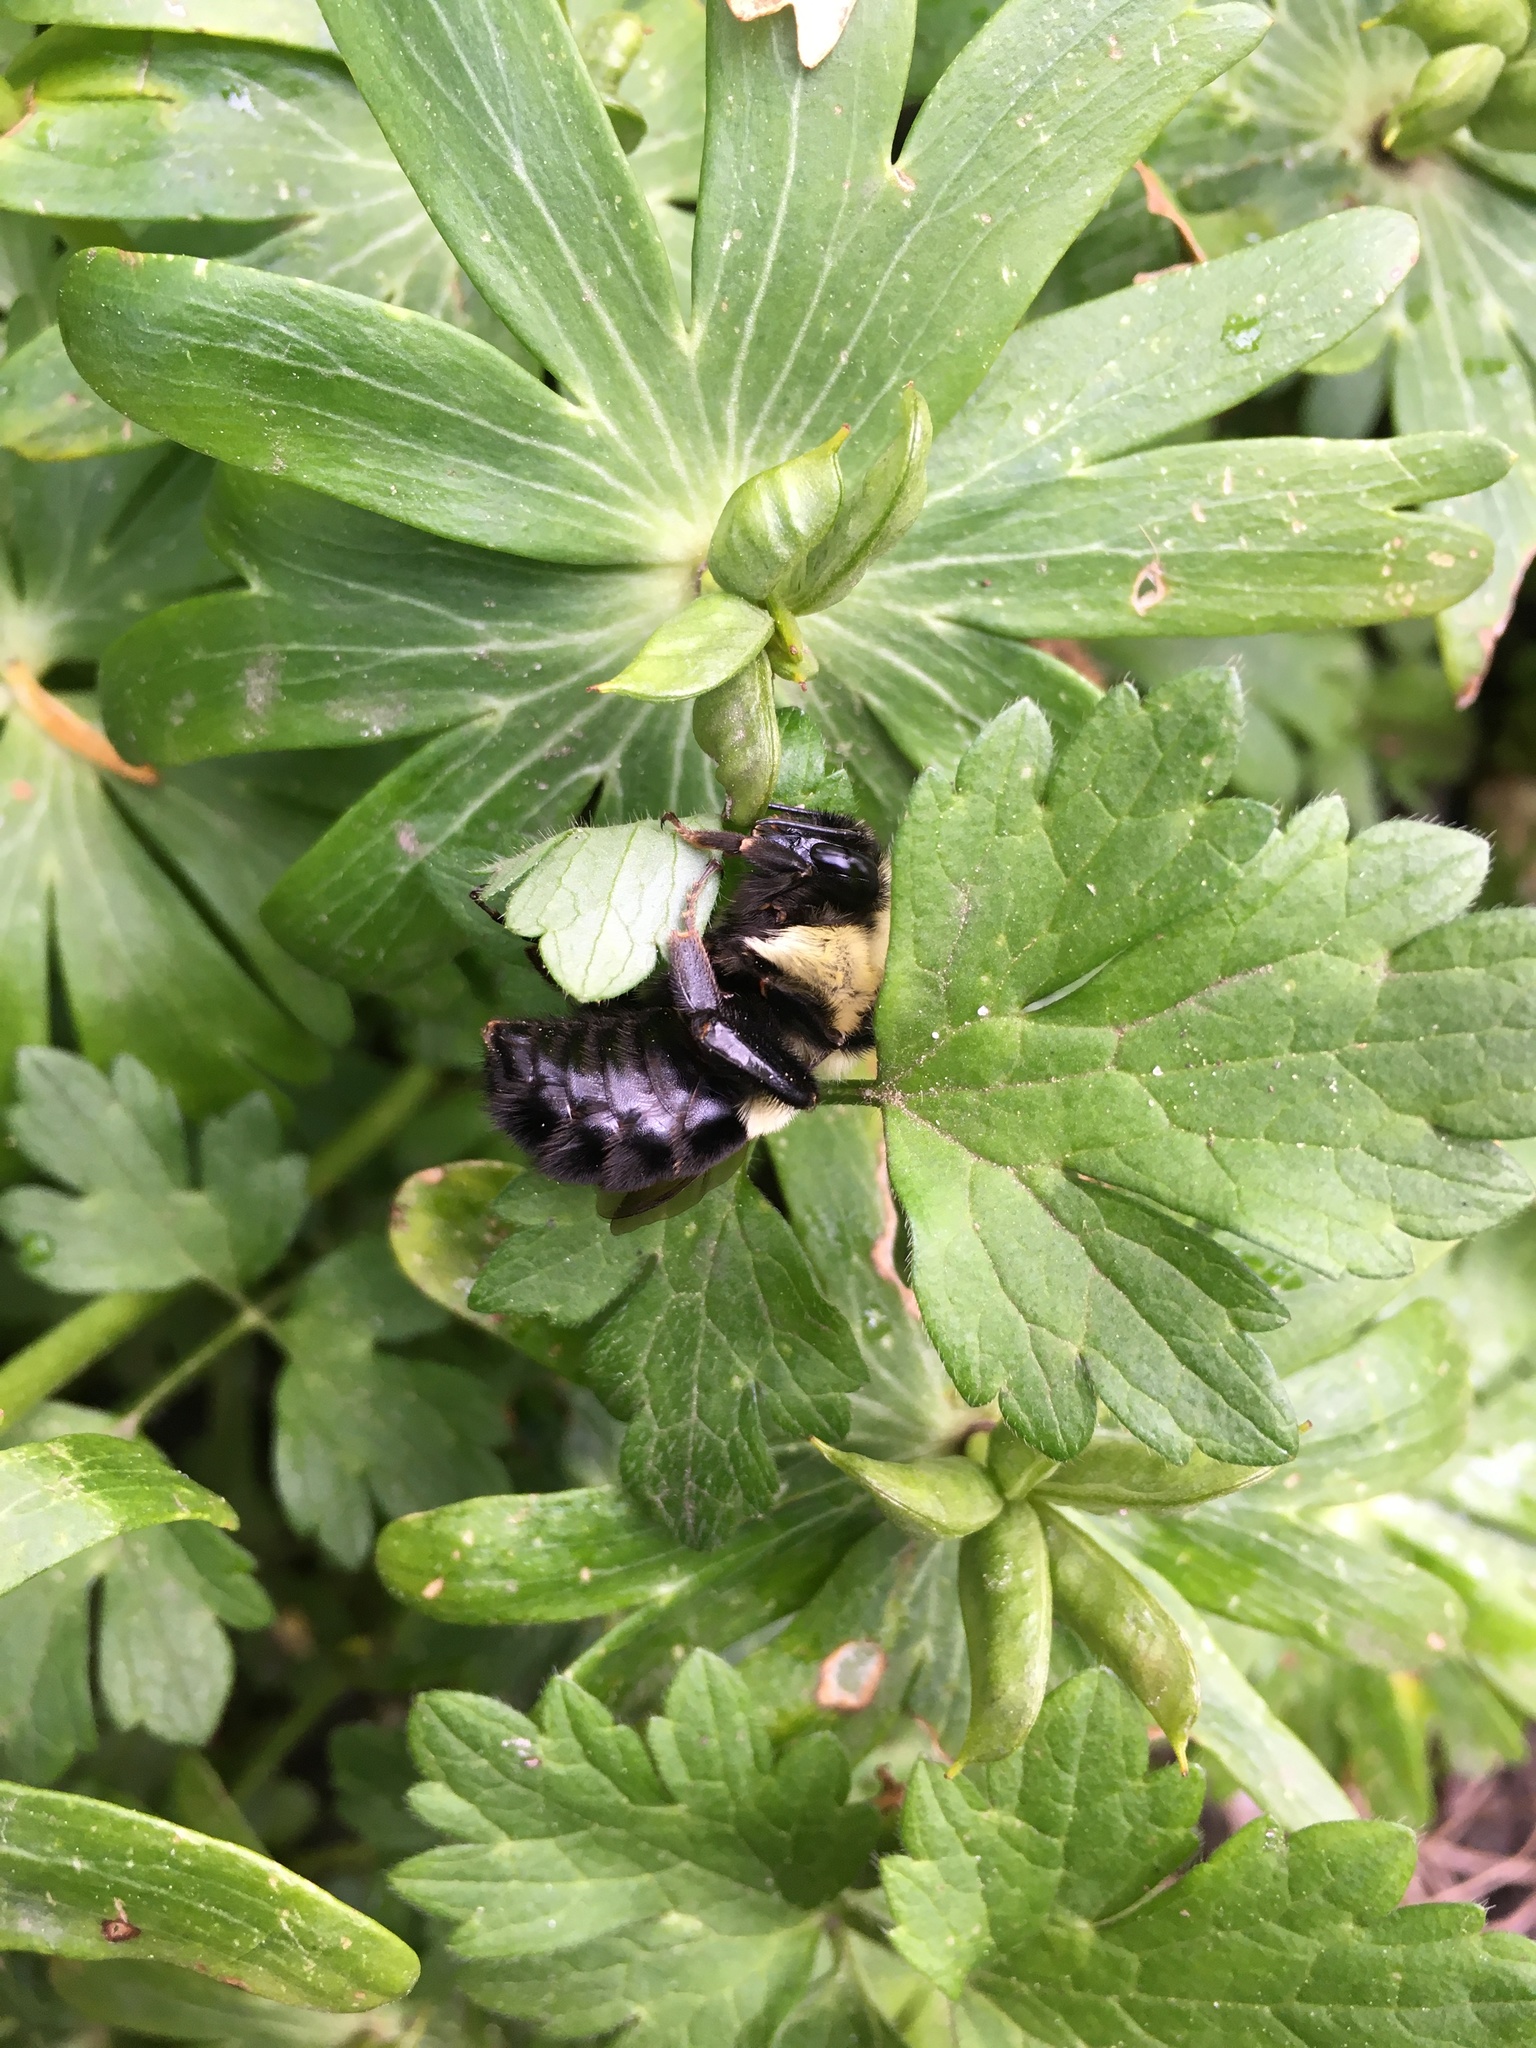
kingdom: Animalia
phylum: Arthropoda
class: Insecta
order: Hymenoptera
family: Apidae
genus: Bombus
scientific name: Bombus impatiens
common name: Common eastern bumble bee
